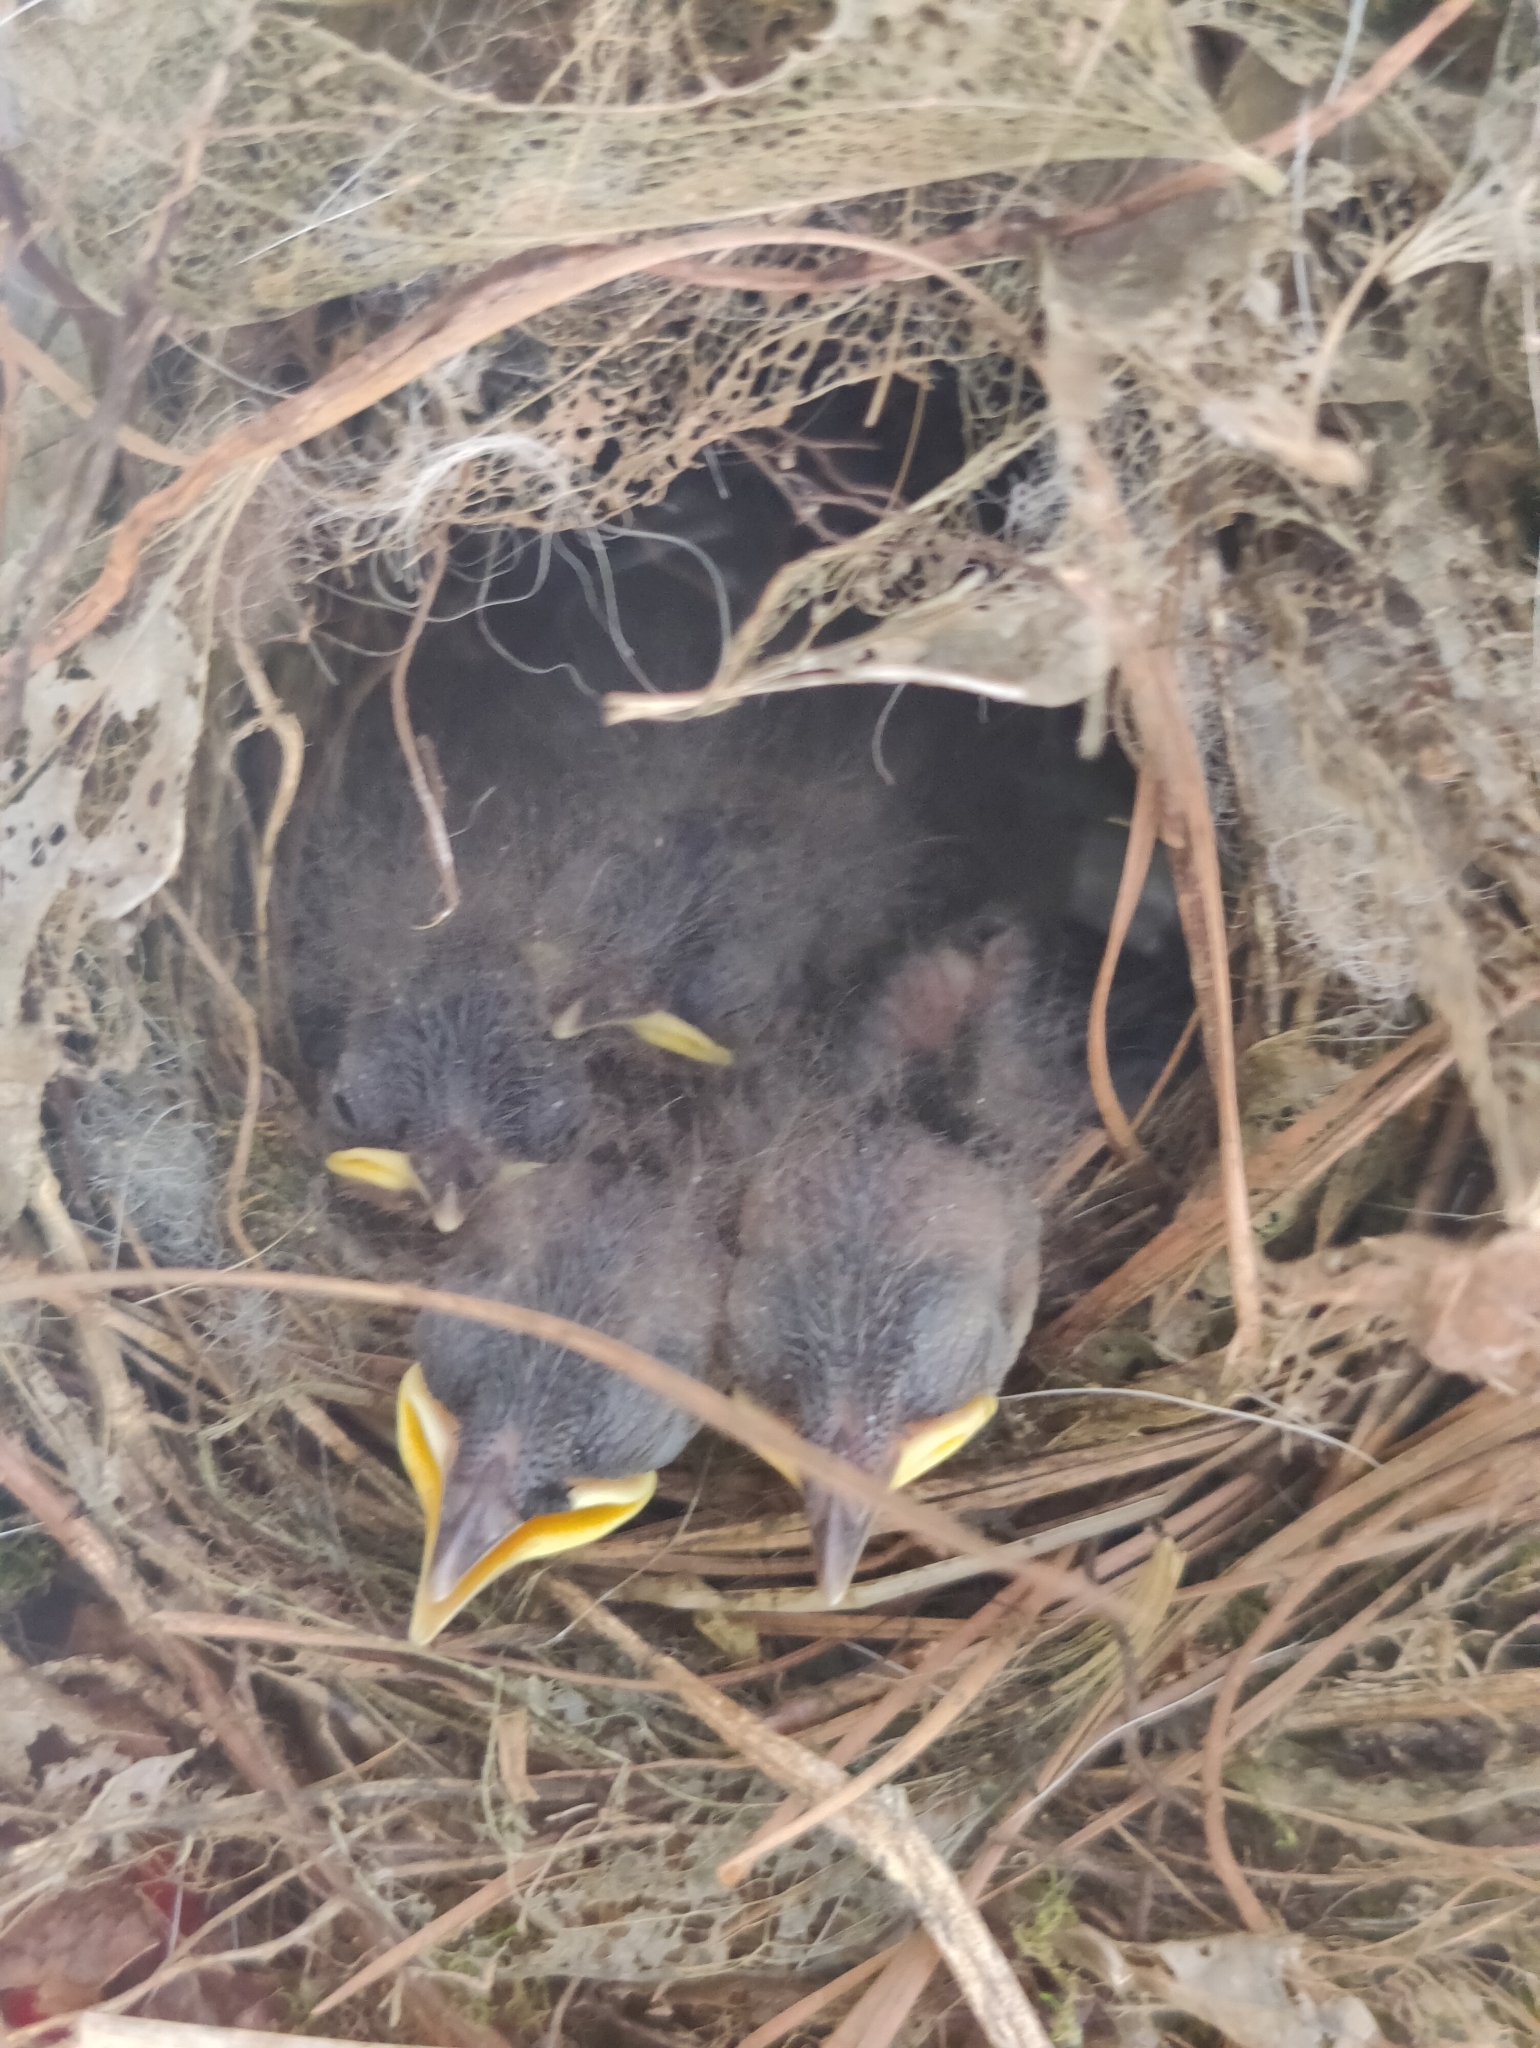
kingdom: Animalia
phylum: Chordata
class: Aves
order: Passeriformes
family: Troglodytidae
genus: Thryothorus
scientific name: Thryothorus ludovicianus
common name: Carolina wren
